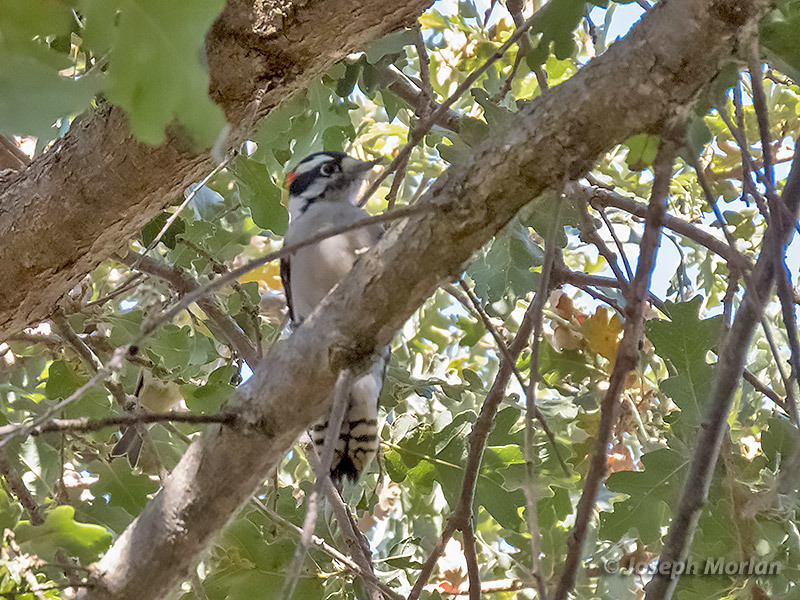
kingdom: Animalia
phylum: Chordata
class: Aves
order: Piciformes
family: Picidae
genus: Dryobates
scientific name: Dryobates pubescens
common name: Downy woodpecker
